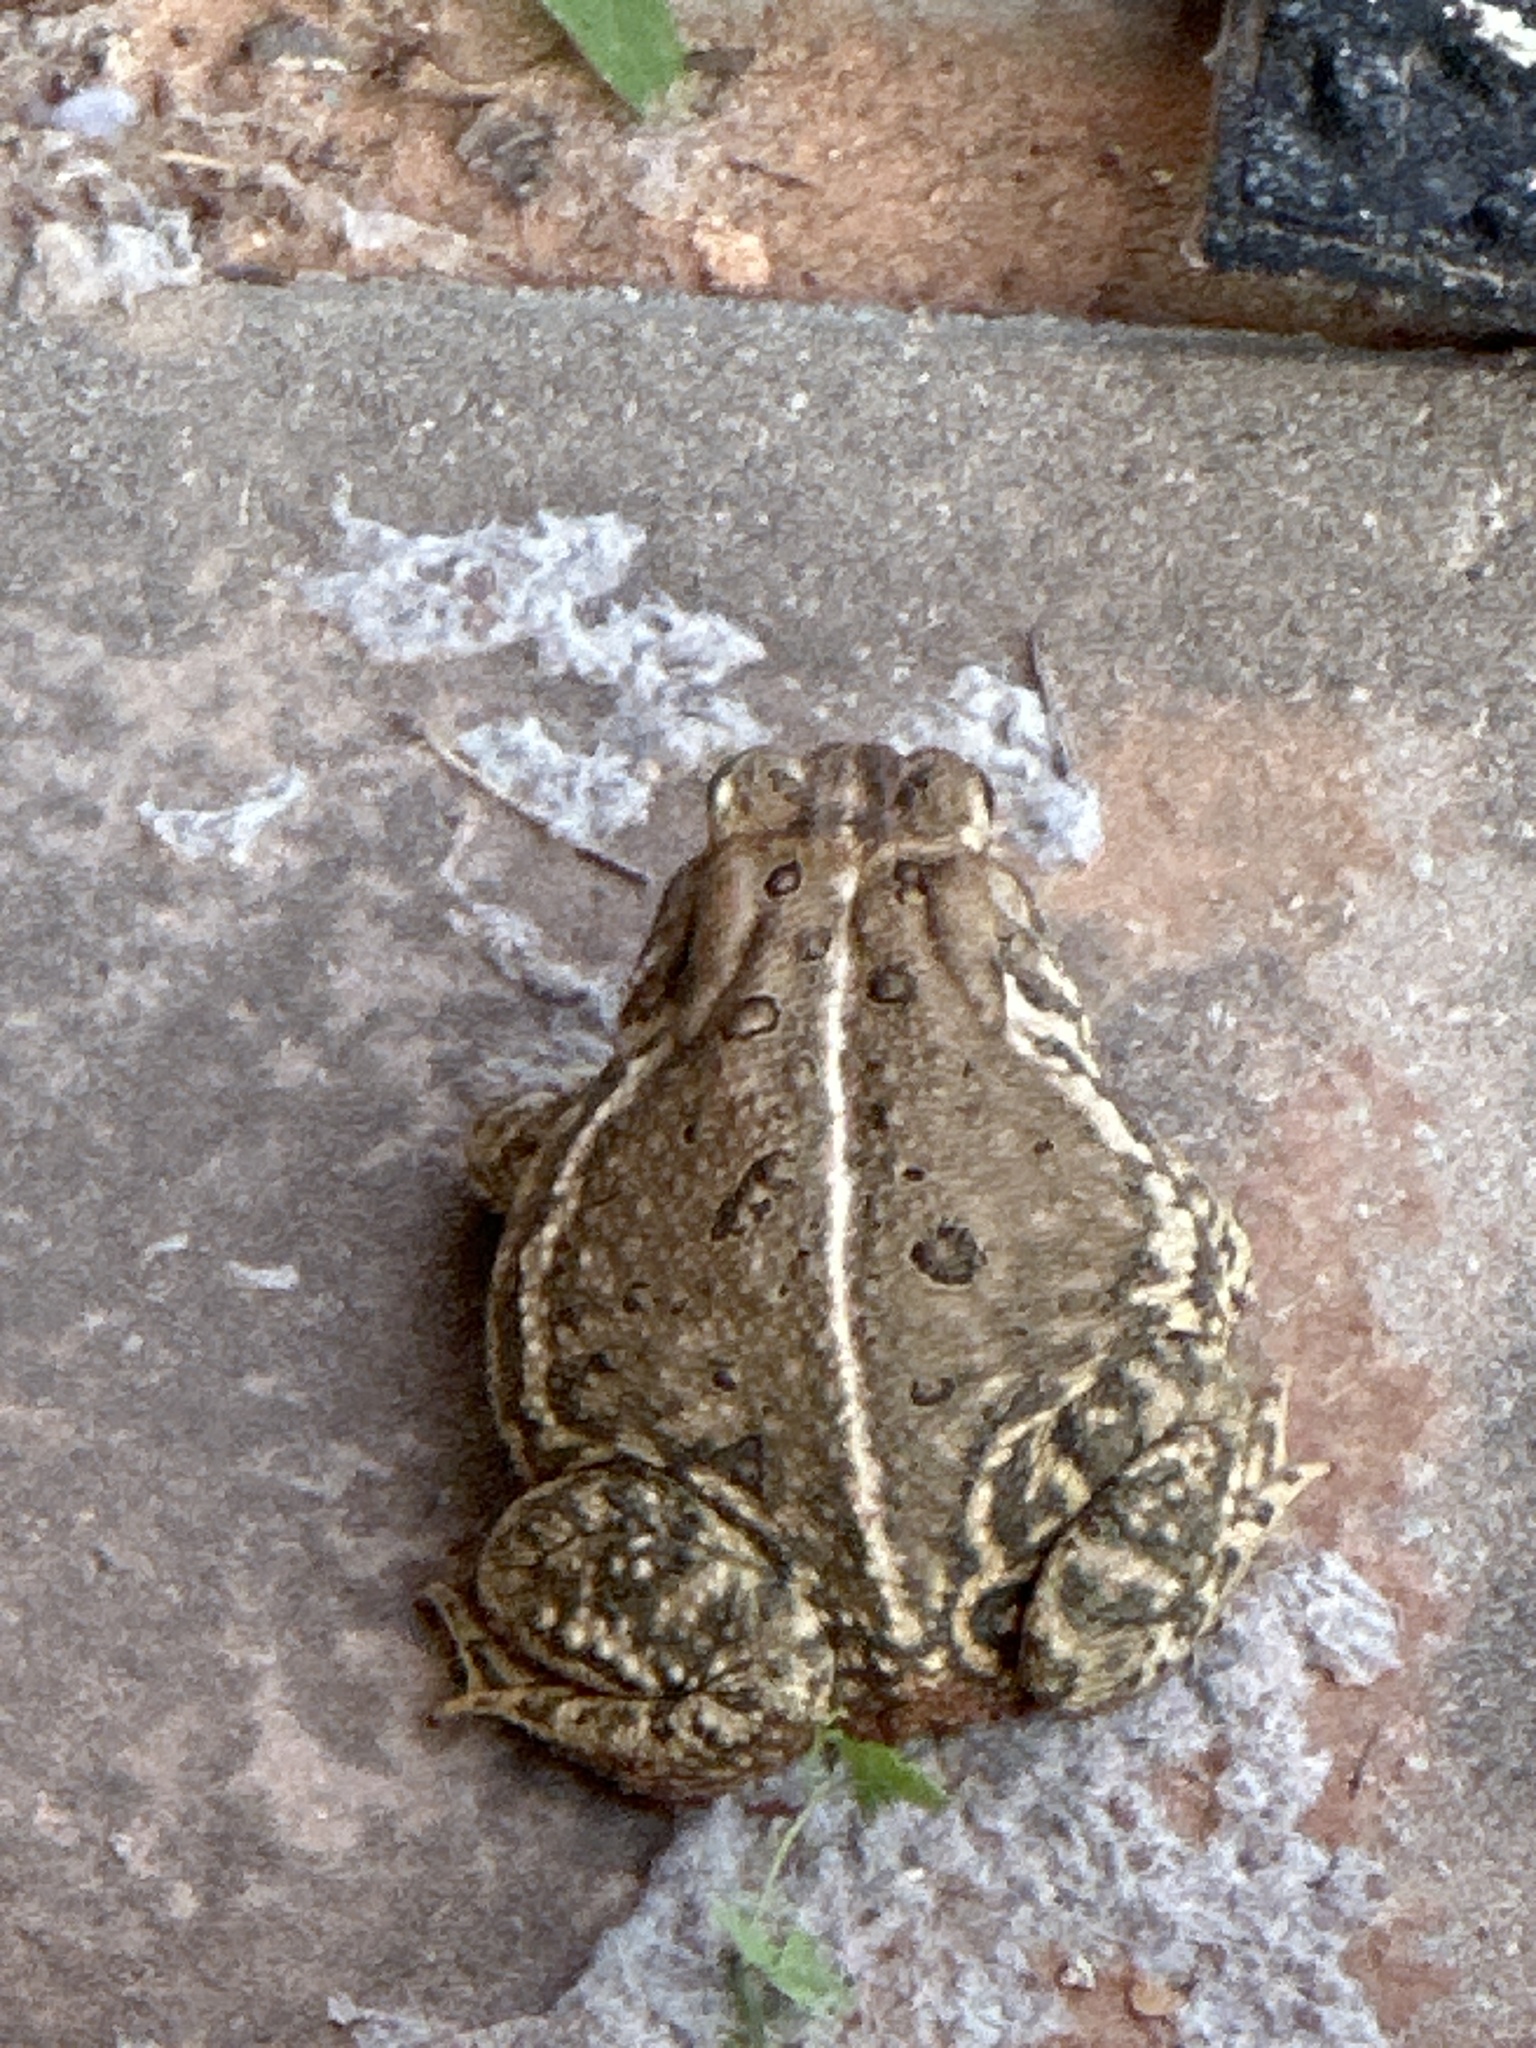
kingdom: Animalia
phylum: Chordata
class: Amphibia
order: Anura
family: Bufonidae
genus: Anaxyrus
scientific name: Anaxyrus woodhousii
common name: Woodhouse's toad
